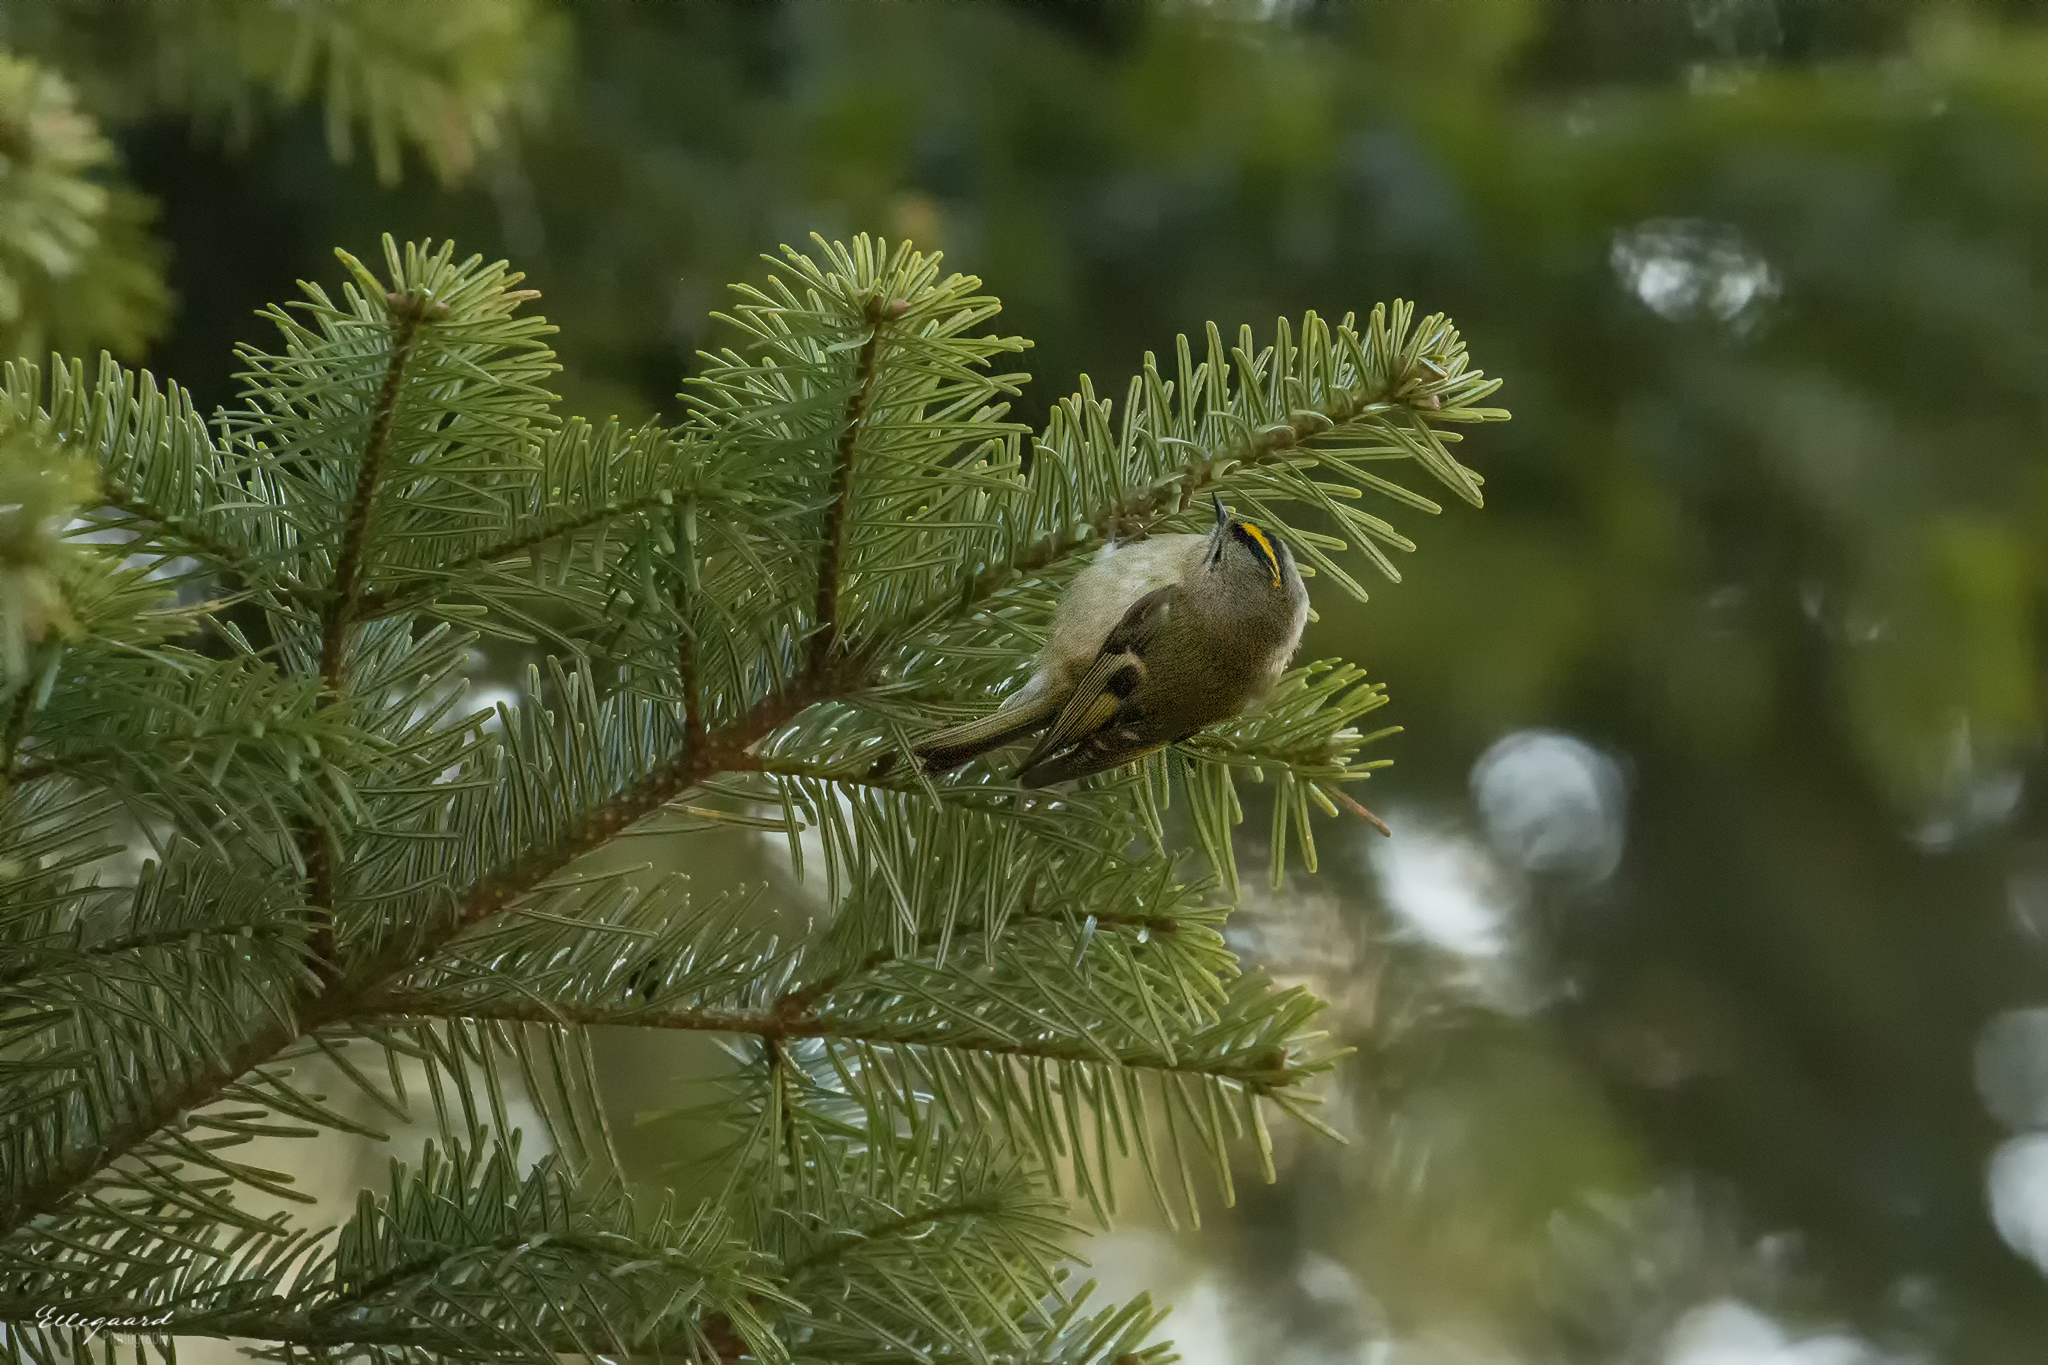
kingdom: Animalia
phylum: Chordata
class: Aves
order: Passeriformes
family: Regulidae
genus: Regulus
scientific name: Regulus regulus
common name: Goldcrest
